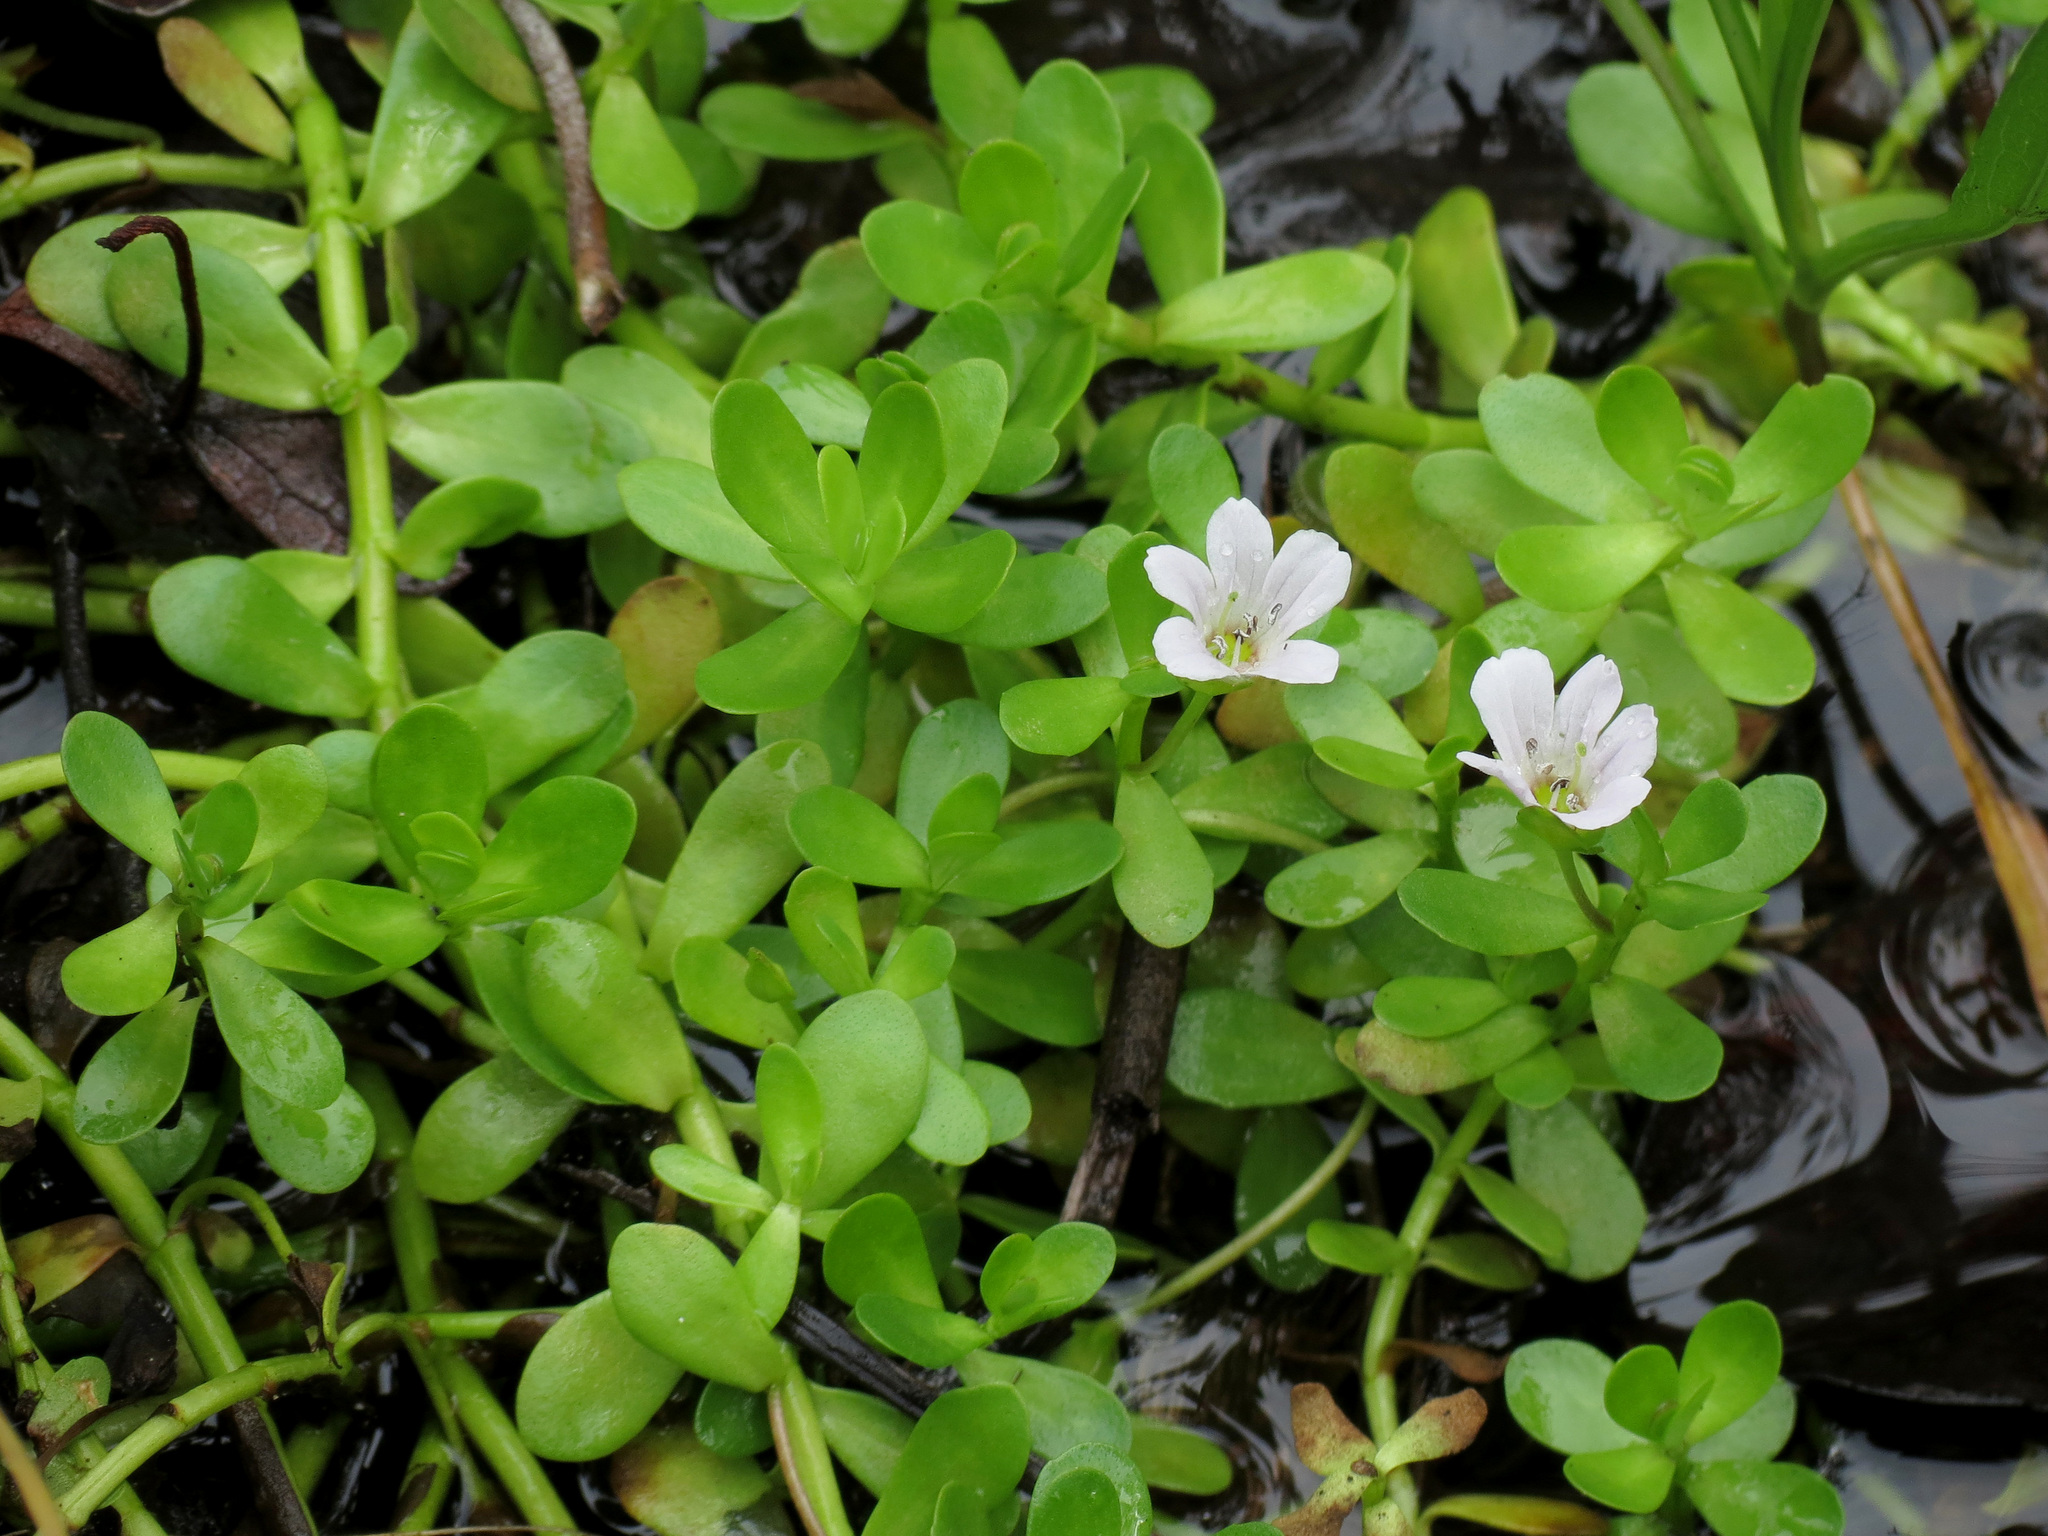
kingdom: Plantae
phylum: Tracheophyta
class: Magnoliopsida
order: Lamiales
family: Plantaginaceae
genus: Bacopa
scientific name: Bacopa monnieri
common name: Indian-pennywort
